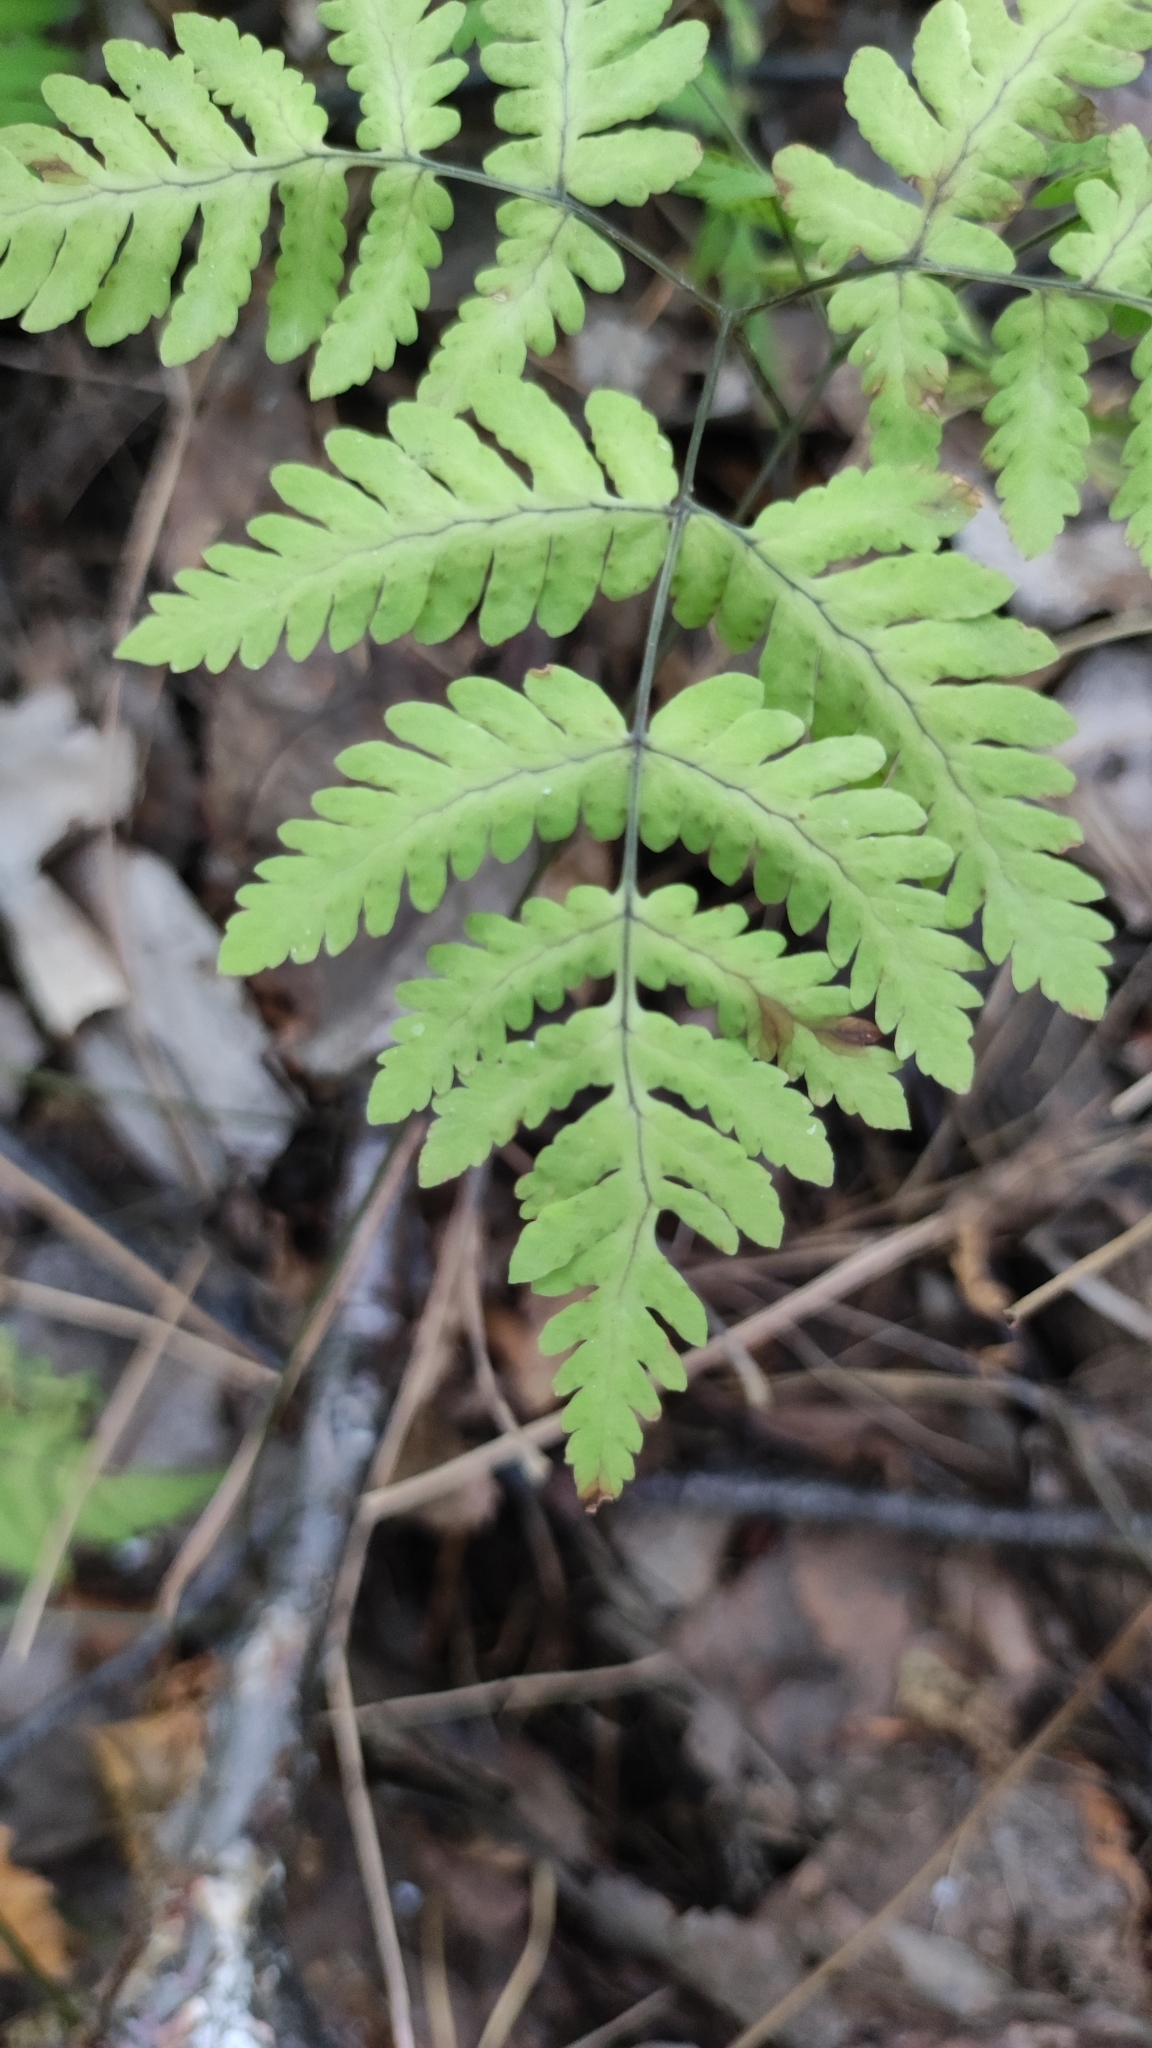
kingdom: Plantae
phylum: Tracheophyta
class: Polypodiopsida
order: Polypodiales
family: Cystopteridaceae
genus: Gymnocarpium
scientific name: Gymnocarpium dryopteris
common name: Oak fern
